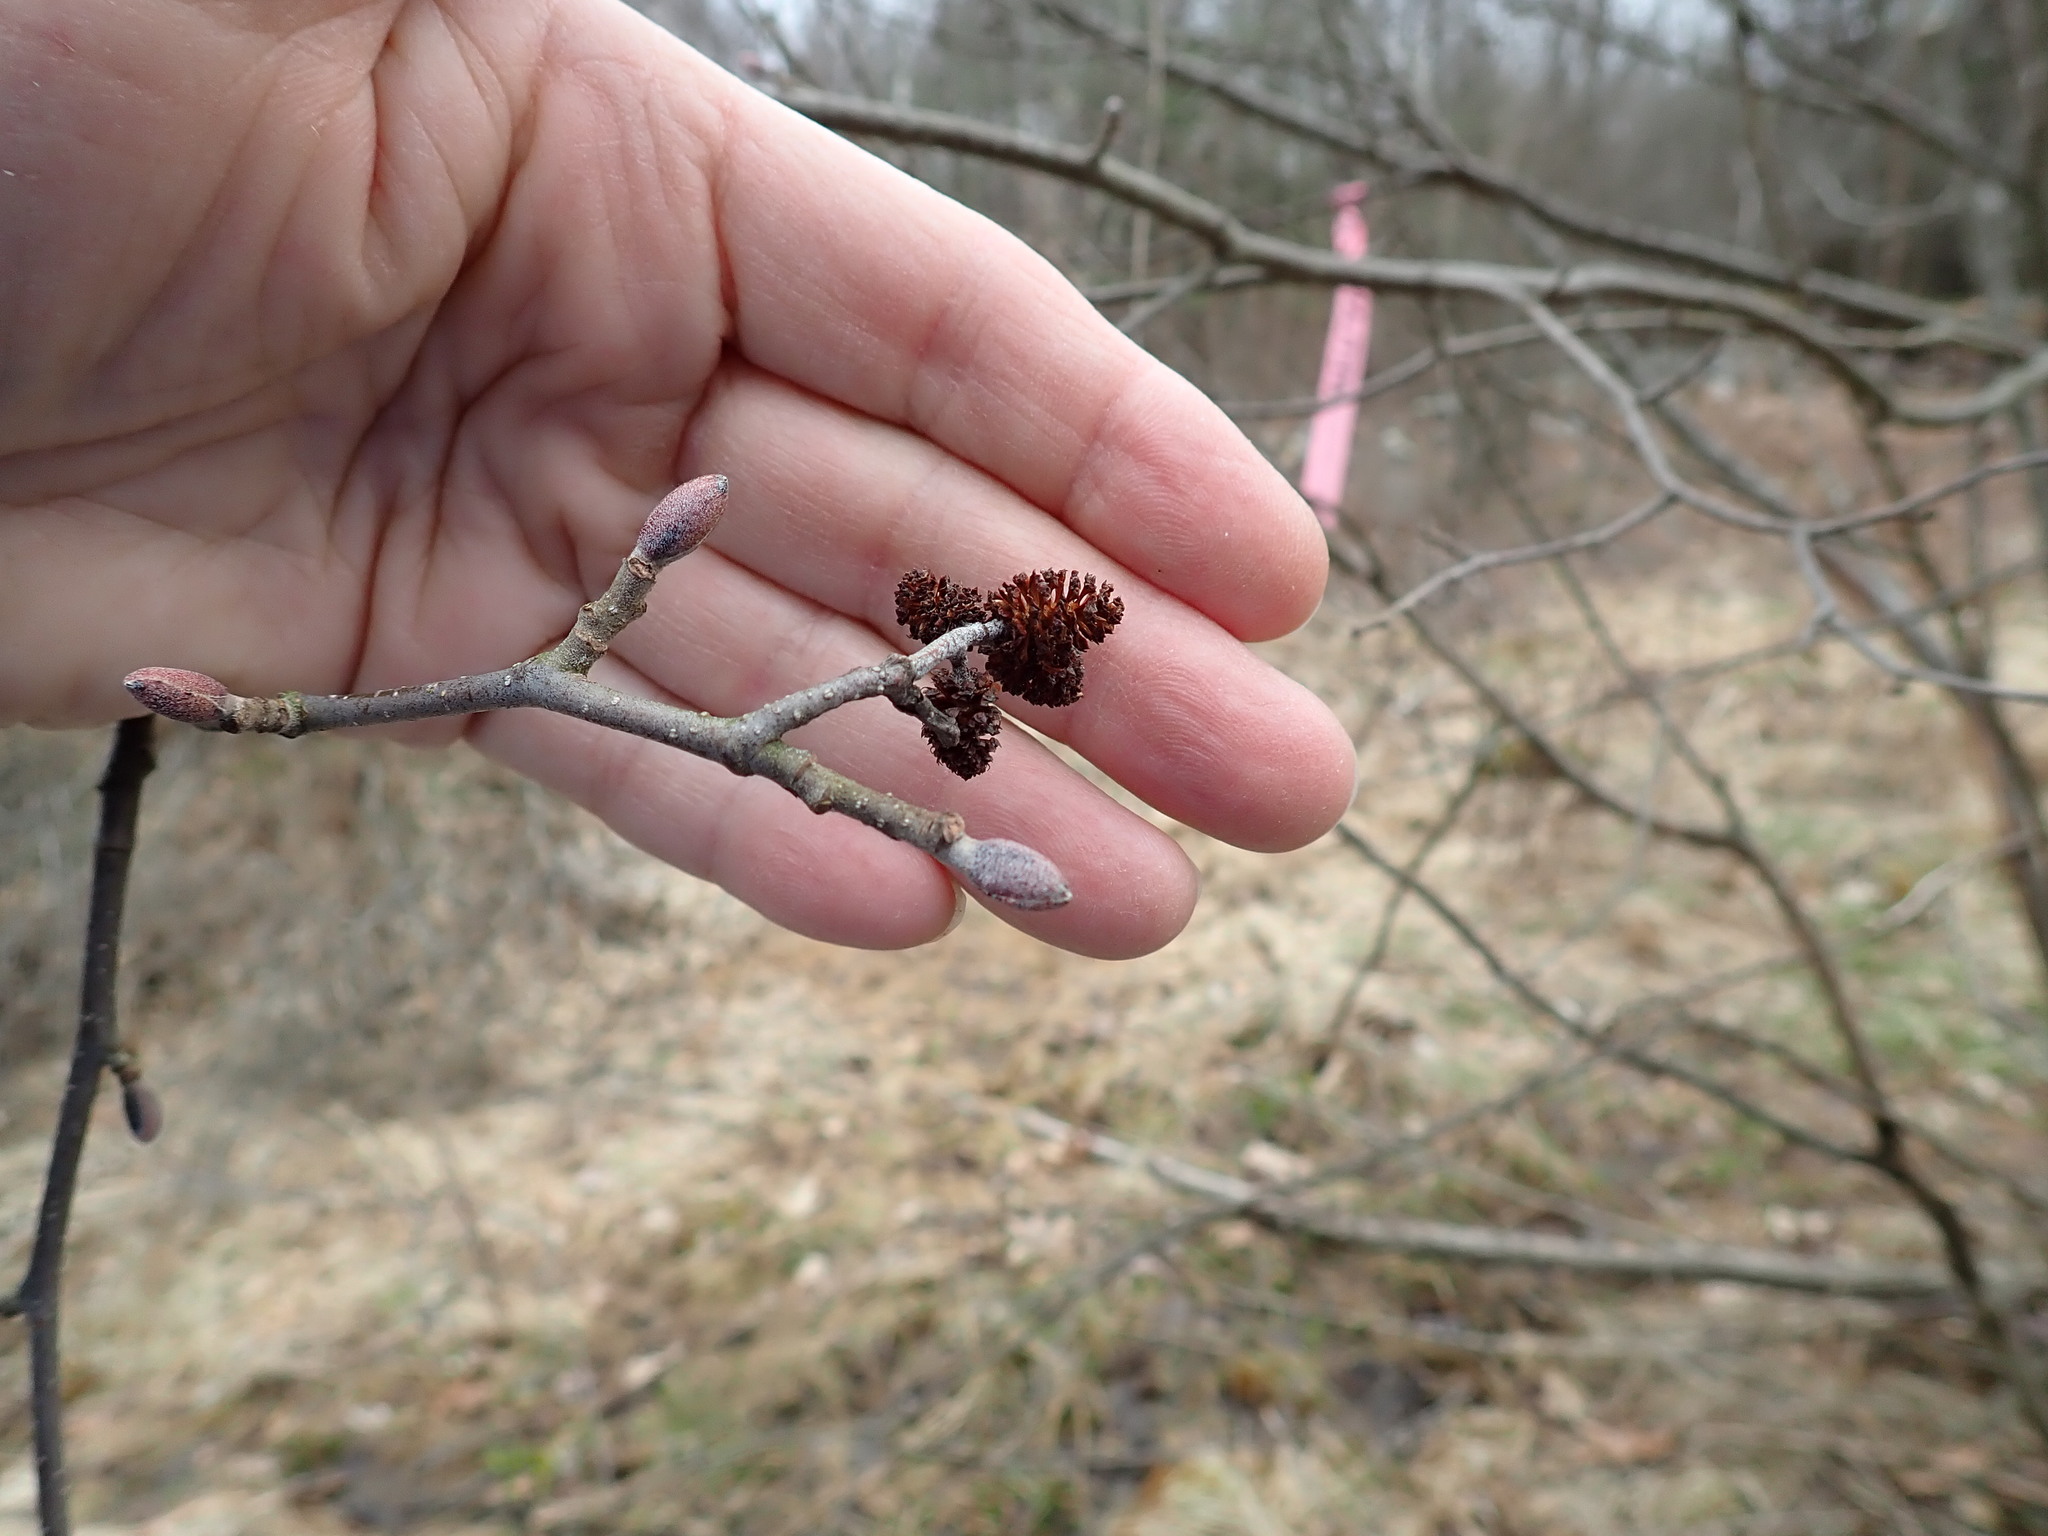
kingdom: Plantae
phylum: Tracheophyta
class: Magnoliopsida
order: Fagales
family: Betulaceae
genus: Alnus
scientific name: Alnus
